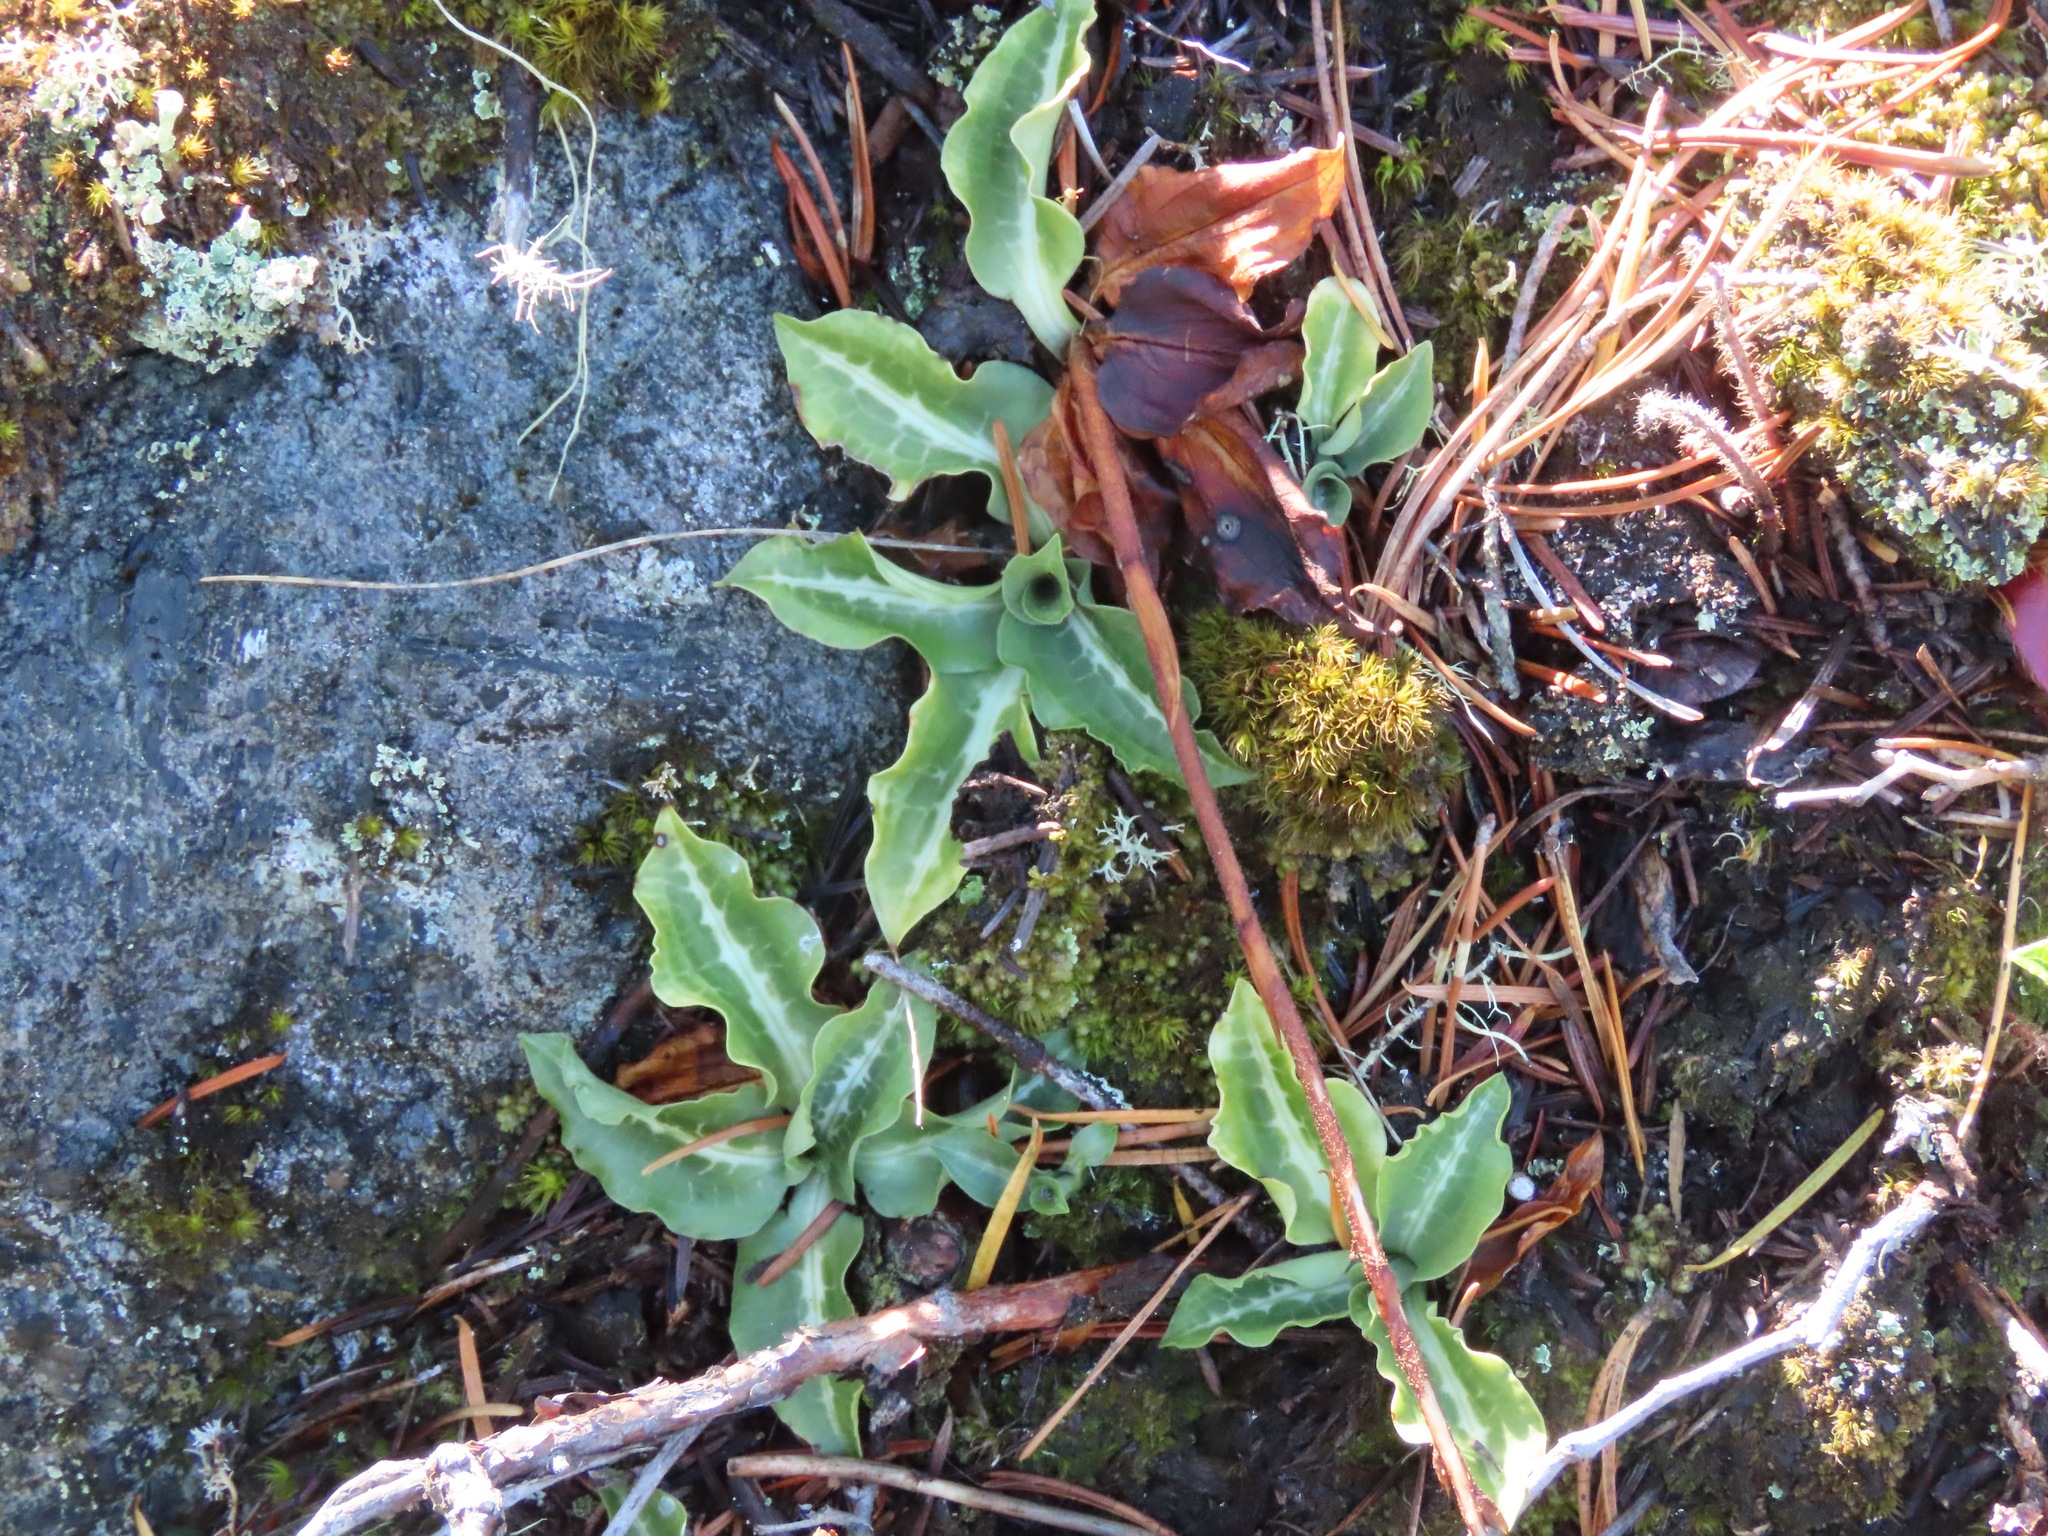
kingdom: Plantae
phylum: Tracheophyta
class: Liliopsida
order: Asparagales
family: Orchidaceae
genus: Goodyera
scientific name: Goodyera oblongifolia
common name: Giant rattlesnake-plantain
